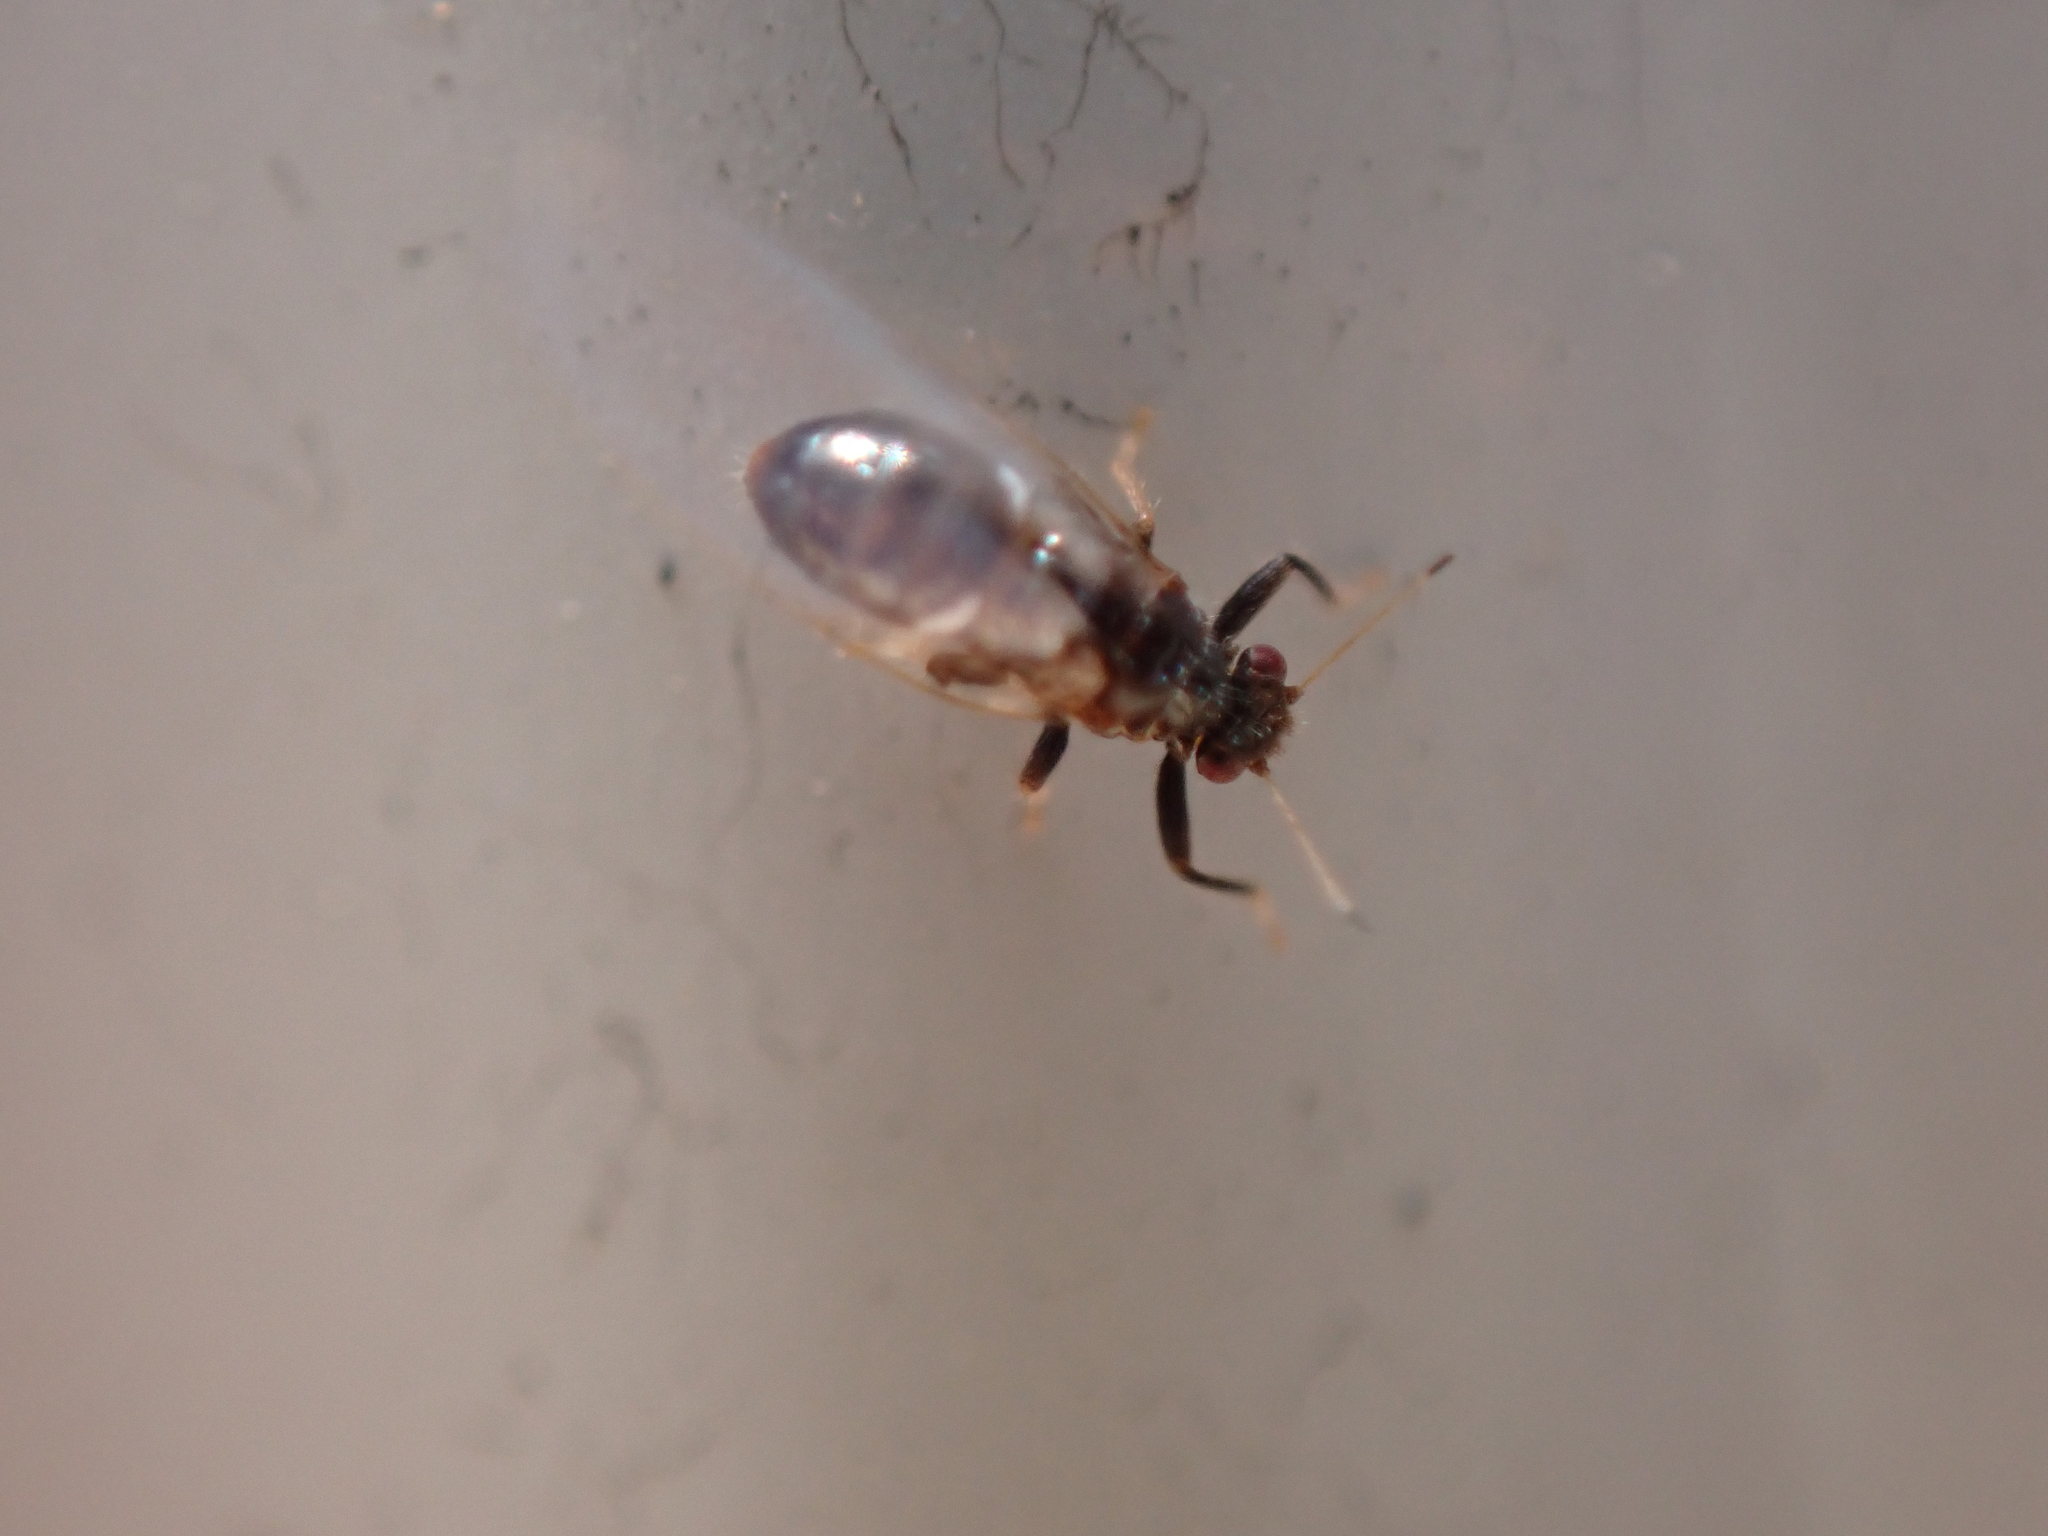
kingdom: Animalia
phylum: Arthropoda
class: Insecta
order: Hemiptera
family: Triozidae
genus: Baeoalitriozus
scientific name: Baeoalitriozus diospyri
